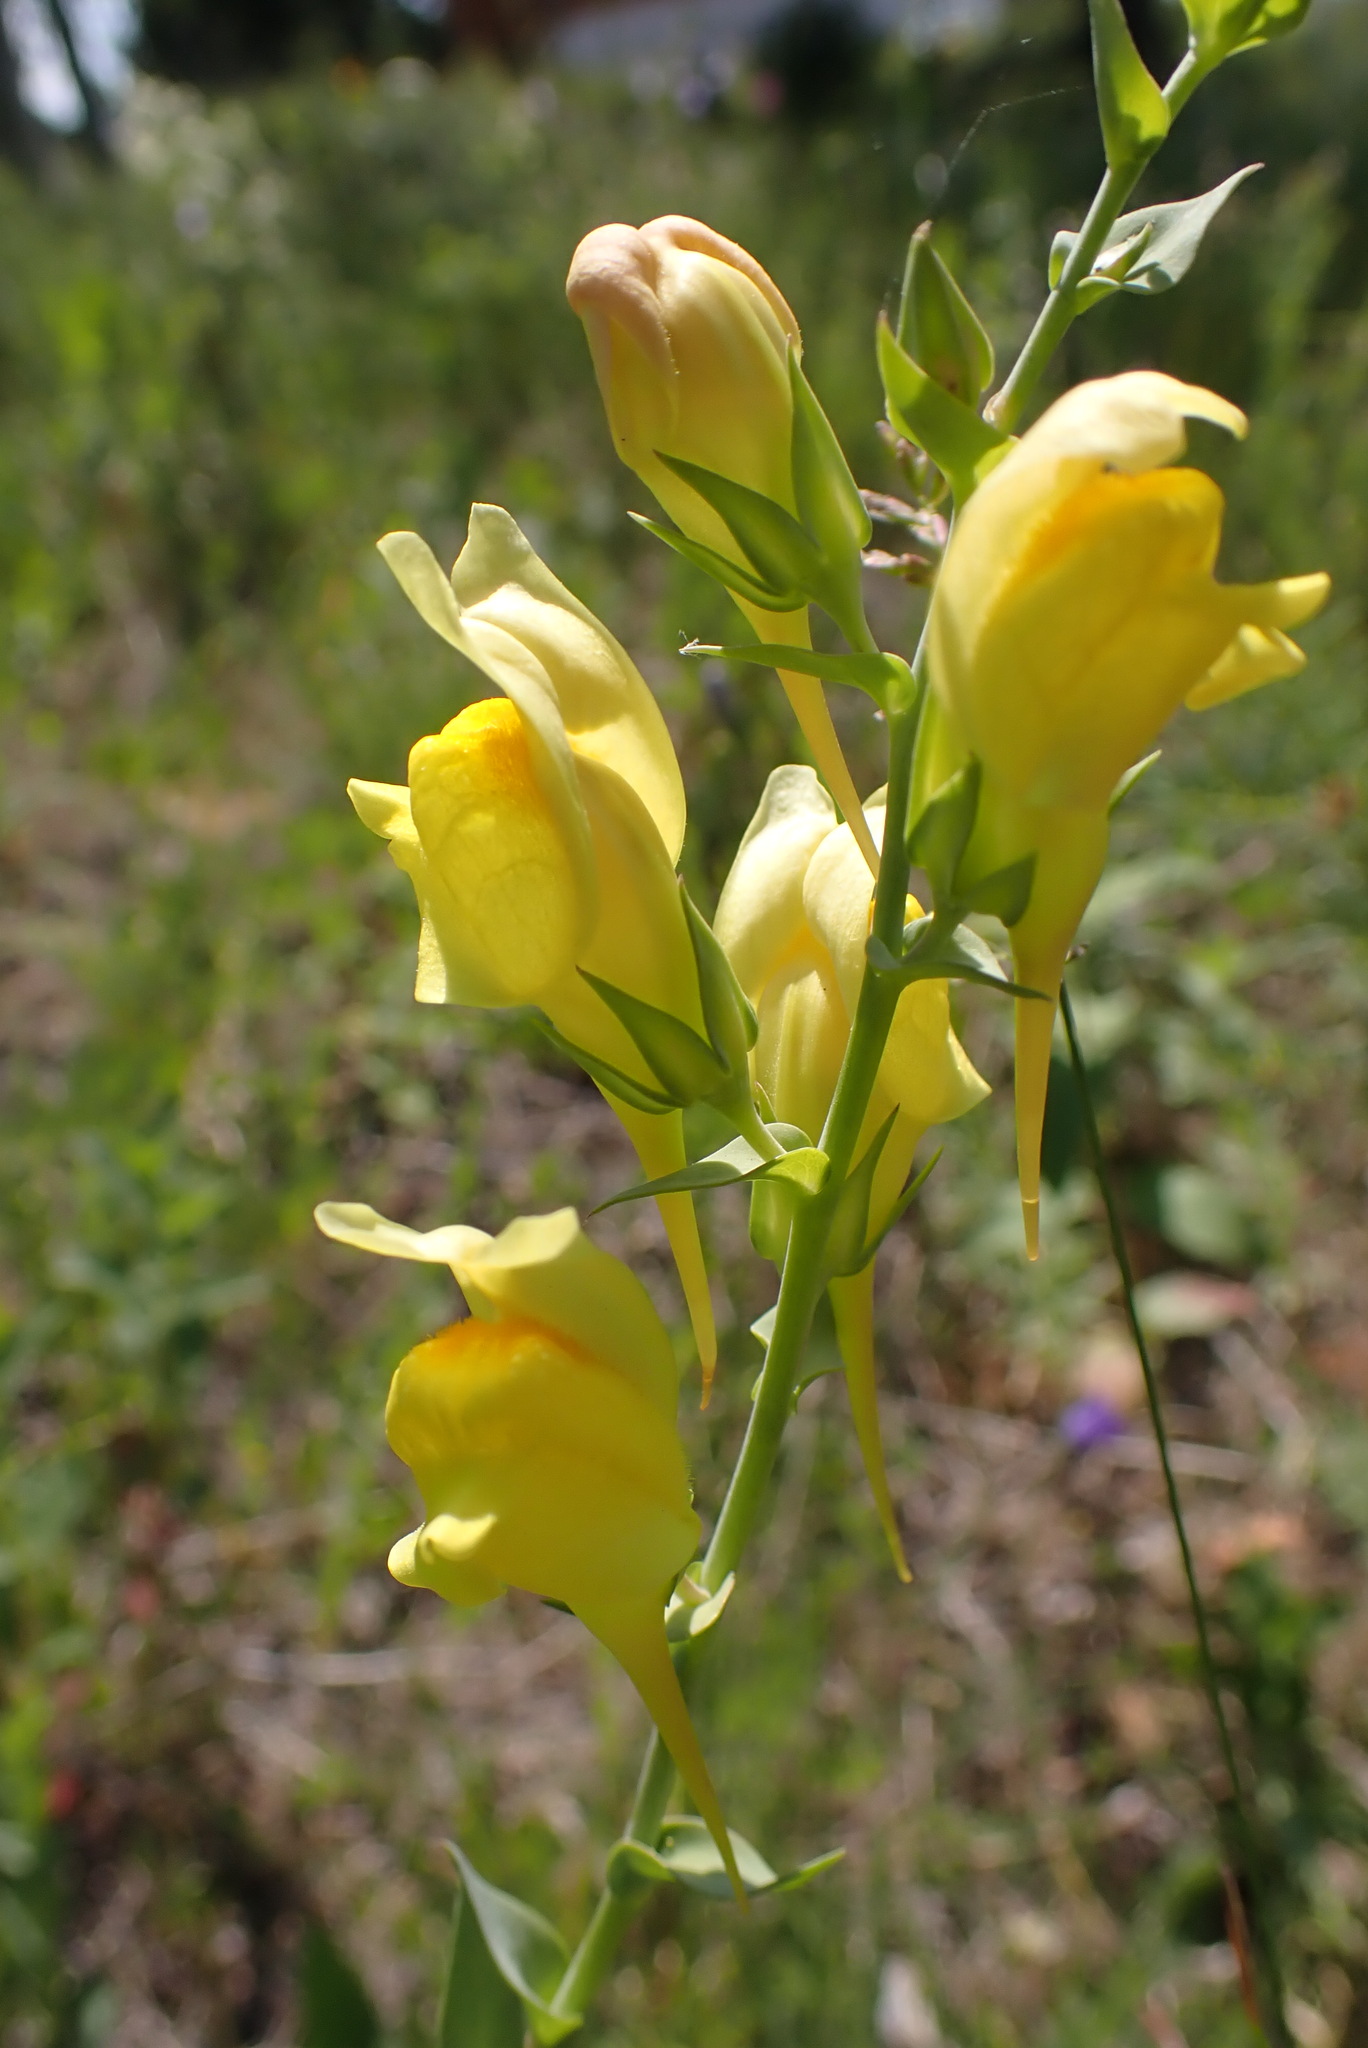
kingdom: Plantae
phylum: Tracheophyta
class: Magnoliopsida
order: Lamiales
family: Plantaginaceae
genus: Linaria
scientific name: Linaria dalmatica
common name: Dalmatian toadflax
